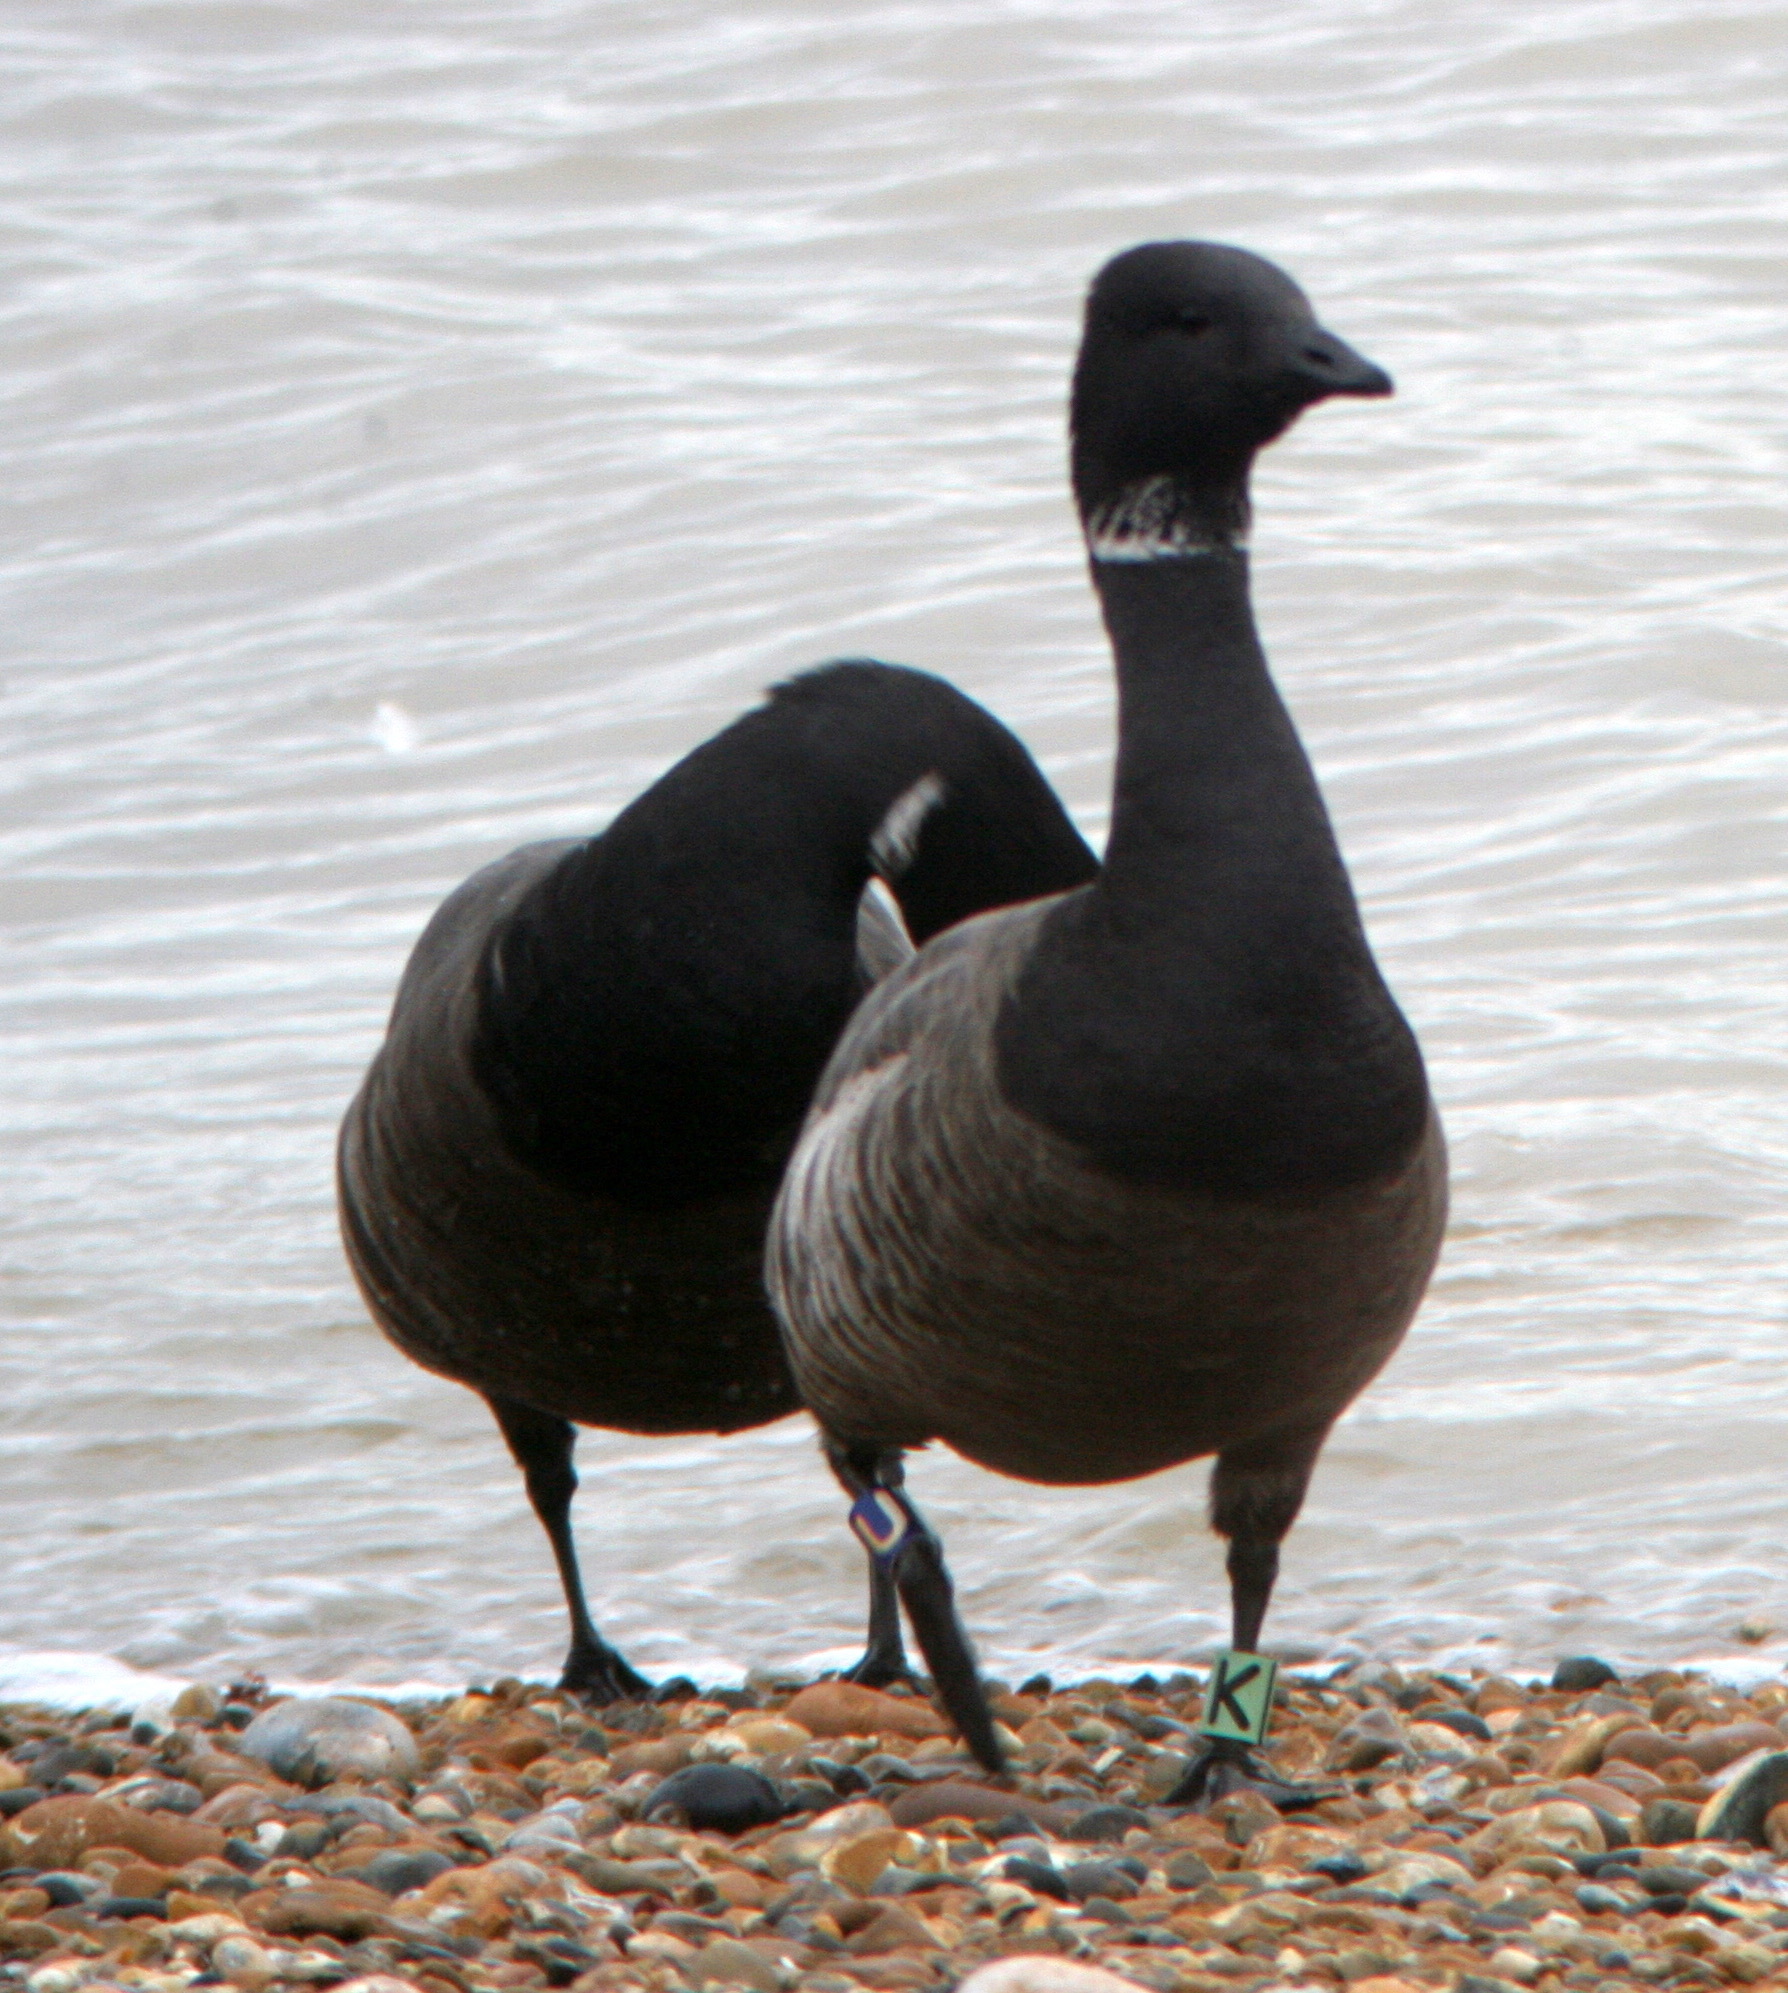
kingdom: Animalia
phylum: Chordata
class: Aves
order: Anseriformes
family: Anatidae
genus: Branta
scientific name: Branta bernicla
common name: Brant goose
